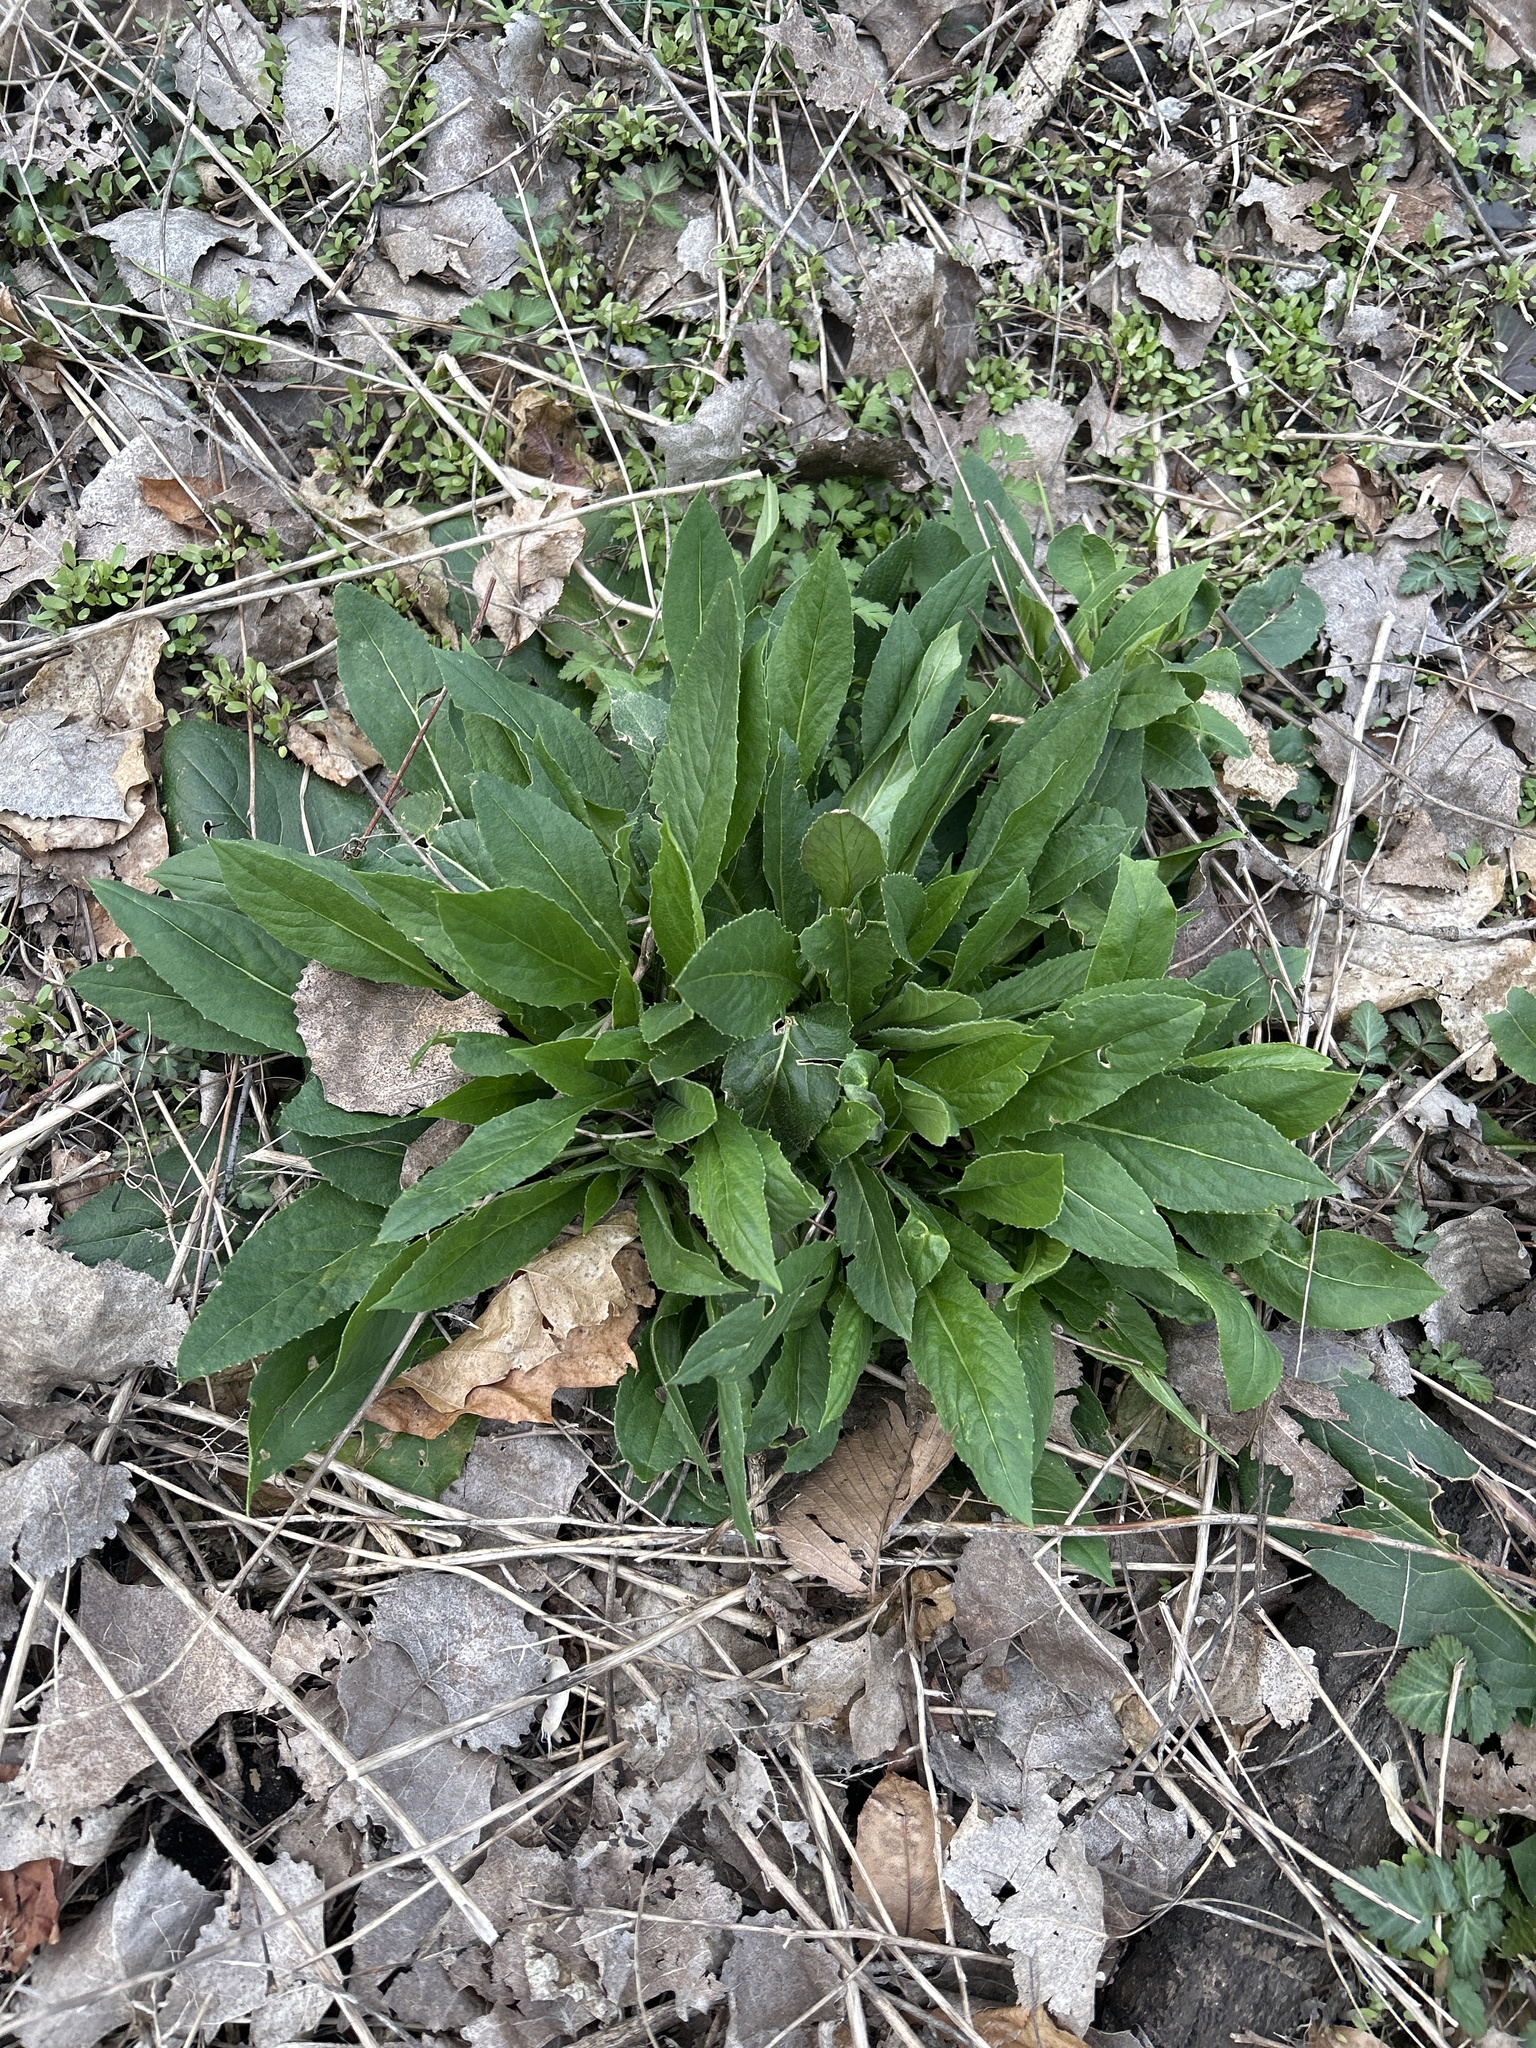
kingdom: Plantae
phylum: Tracheophyta
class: Magnoliopsida
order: Brassicales
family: Brassicaceae
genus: Hesperis
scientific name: Hesperis matronalis
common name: Dame's-violet
